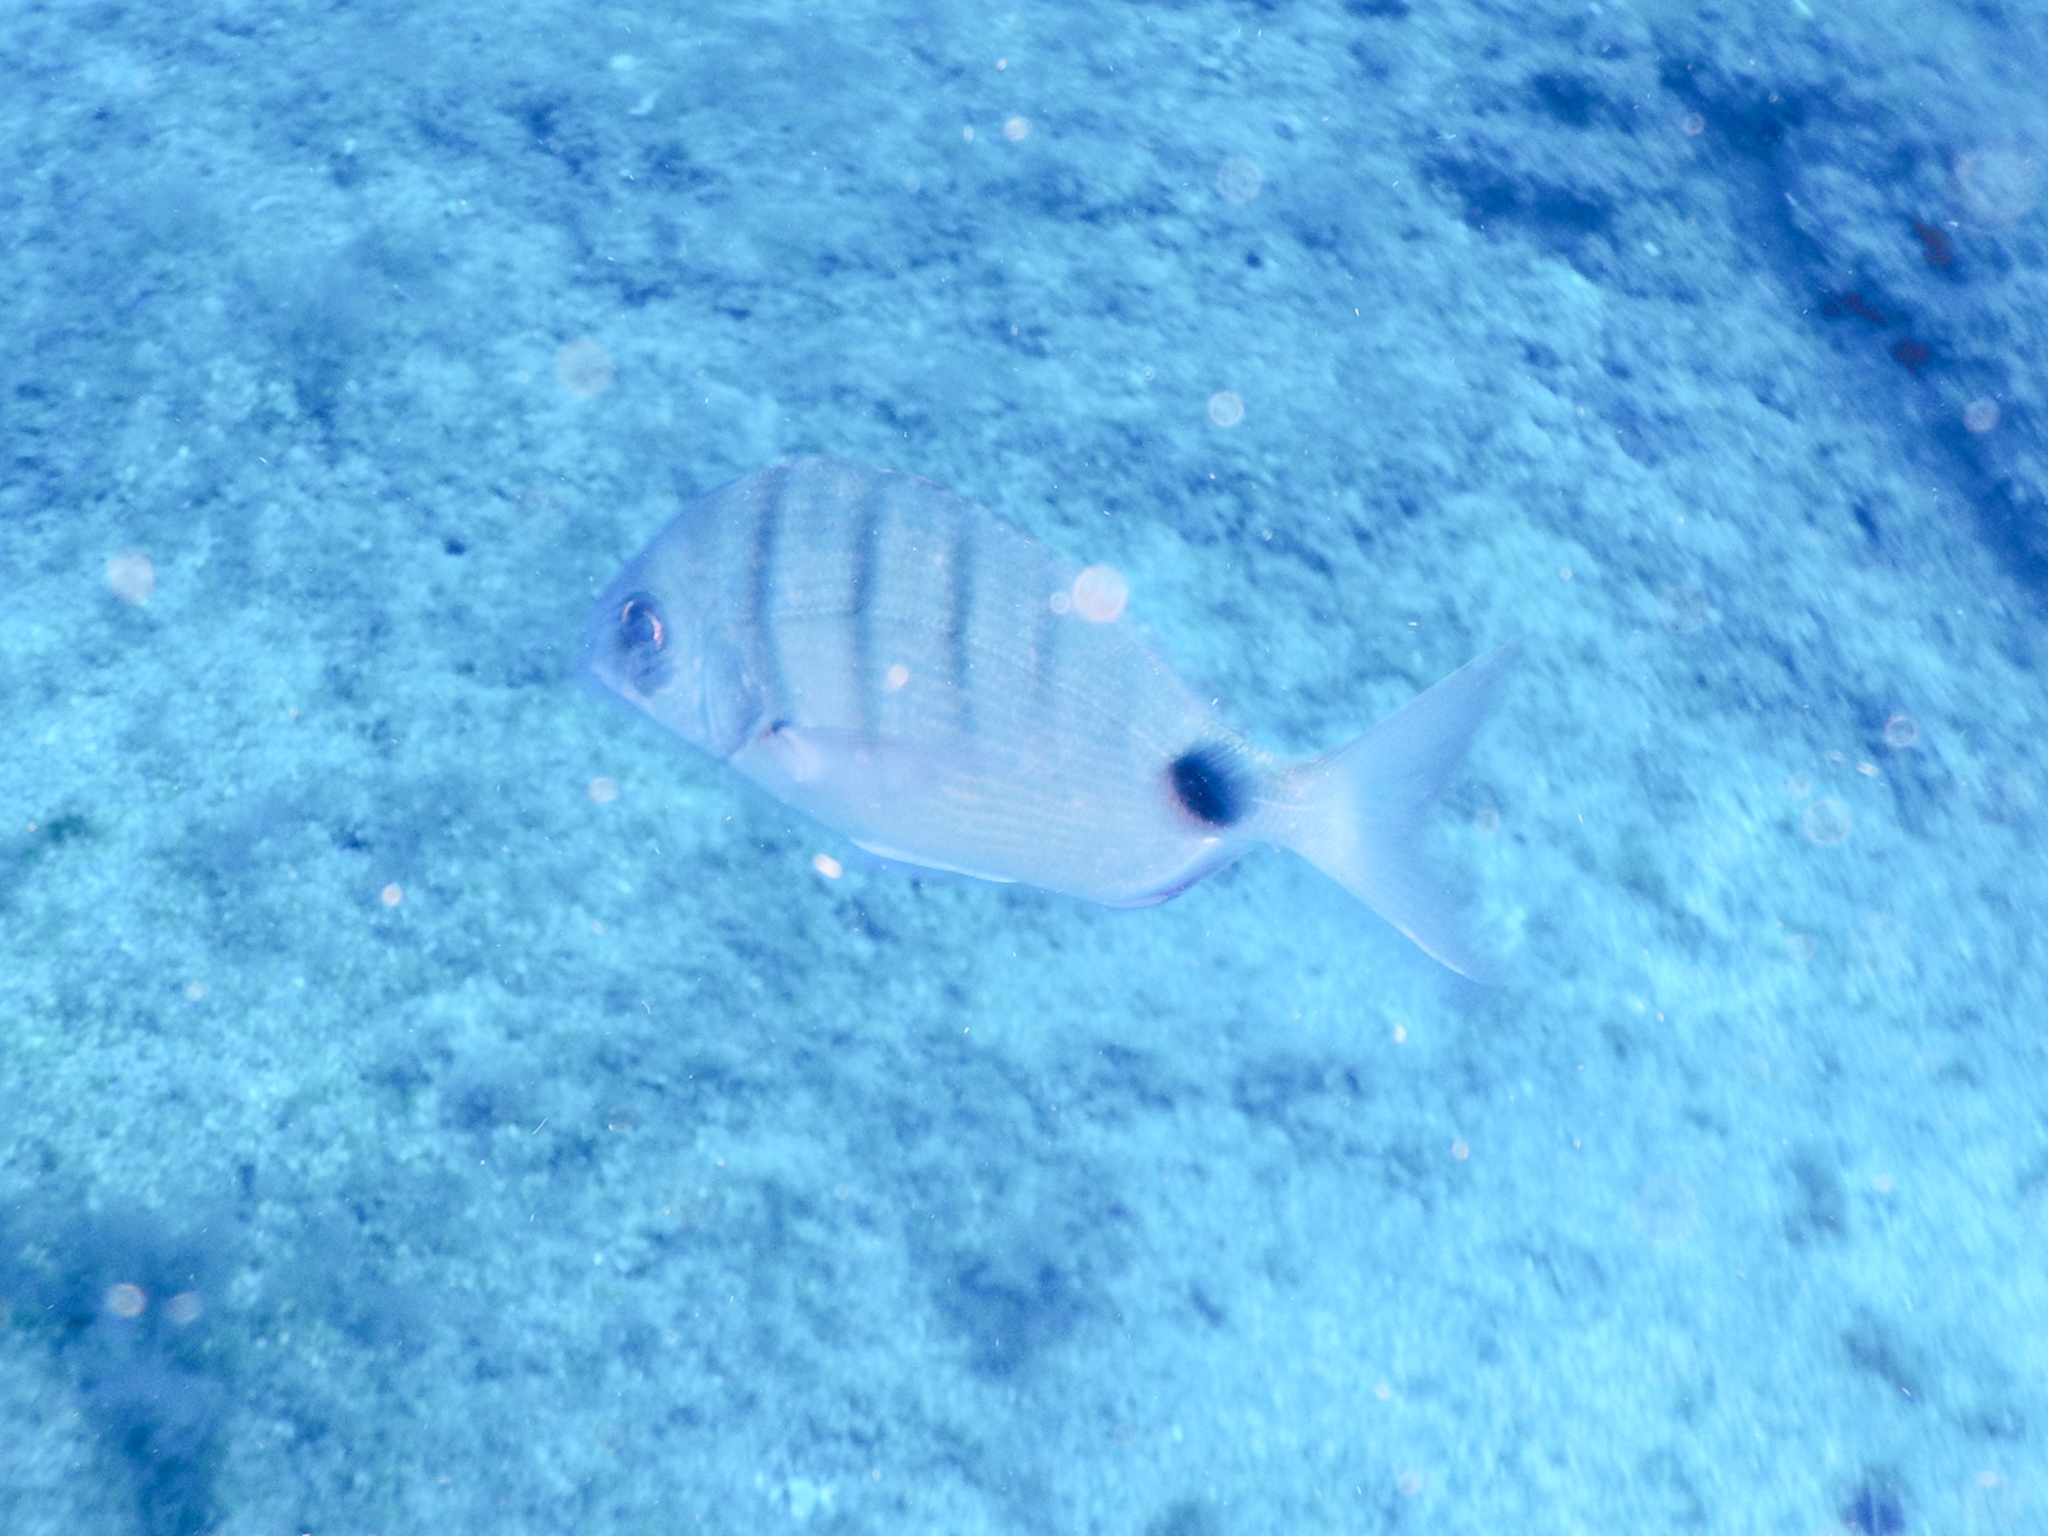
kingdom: Animalia
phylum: Chordata
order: Perciformes
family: Sparidae
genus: Diplodus
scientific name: Diplodus cadenati
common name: Moroccan white seabream
